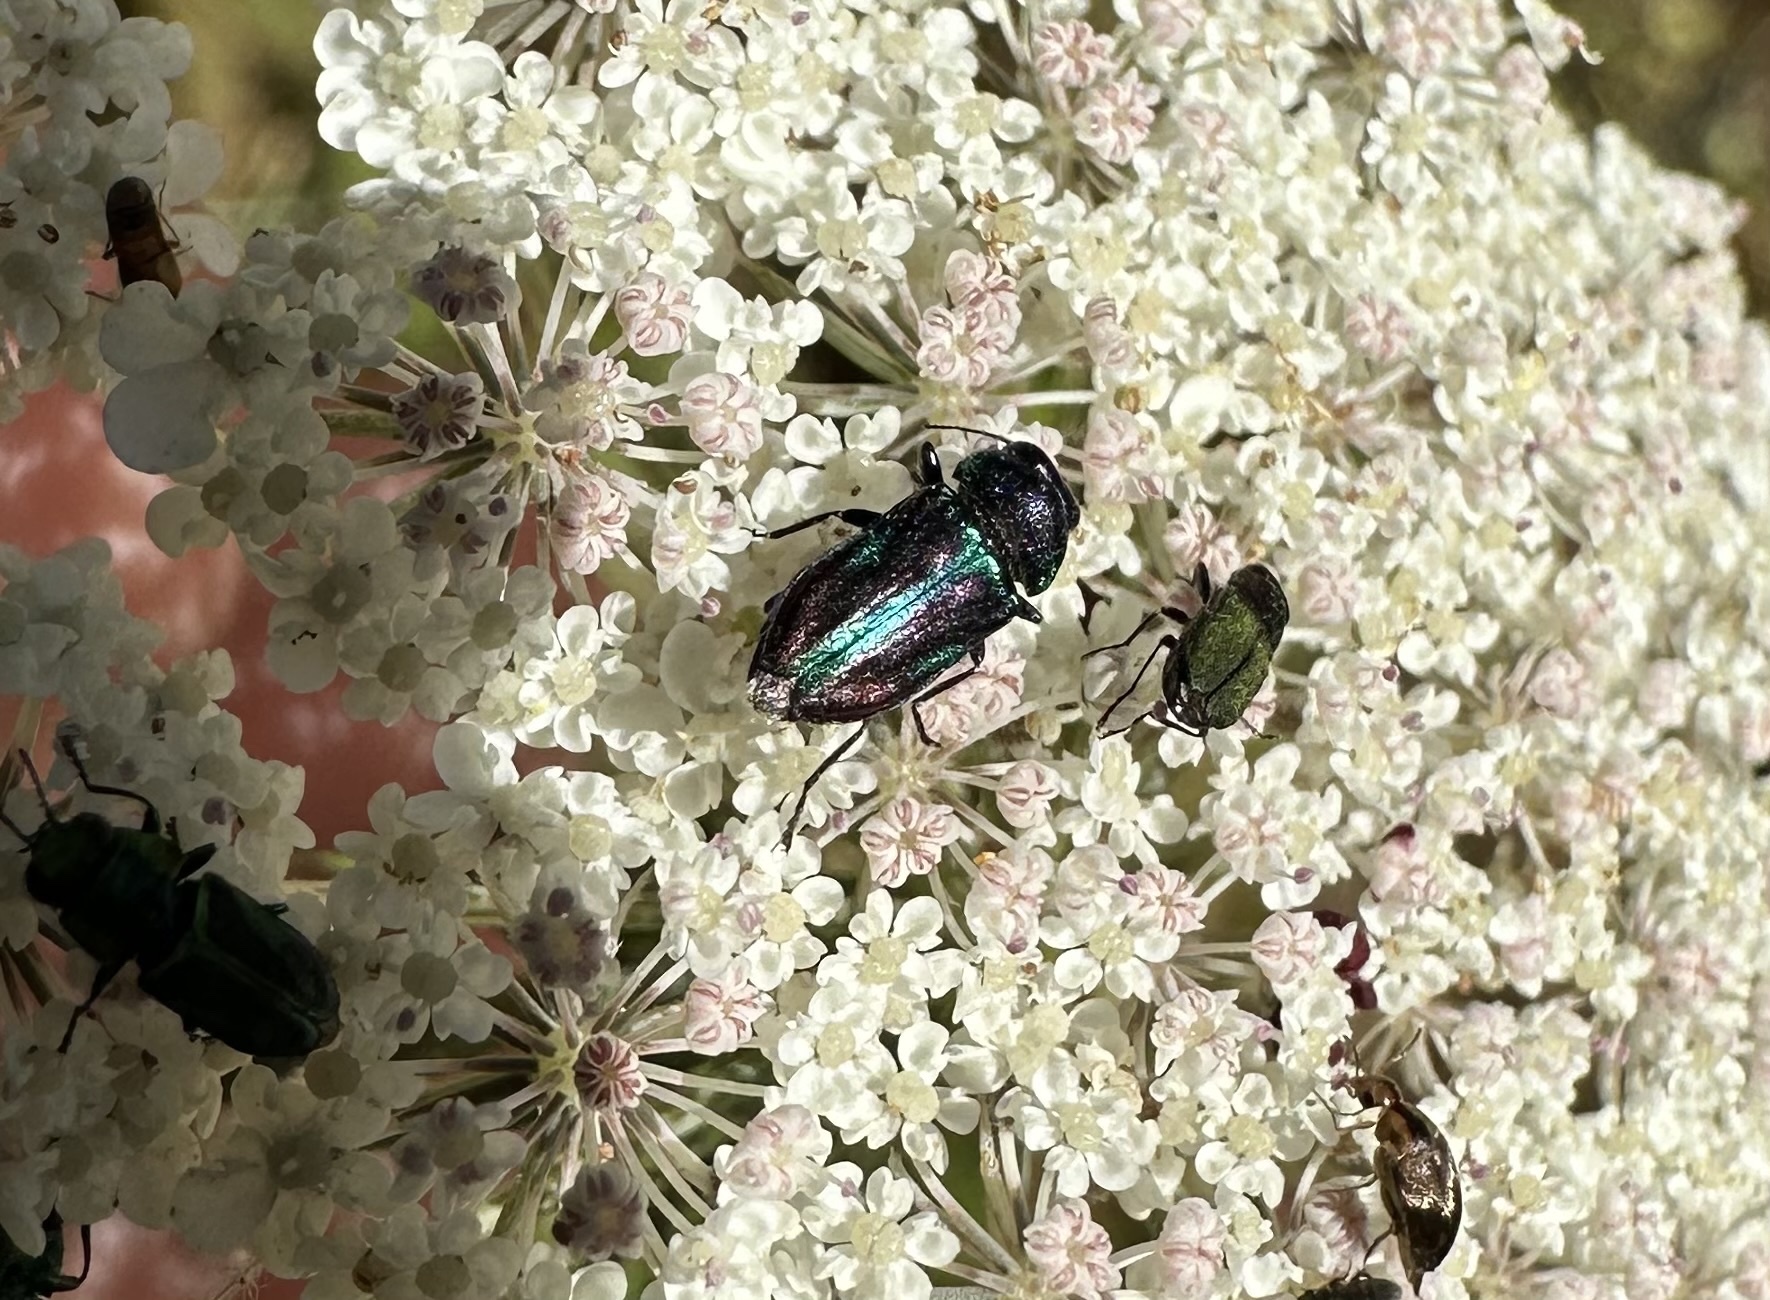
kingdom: Animalia
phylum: Arthropoda
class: Insecta
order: Coleoptera
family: Buprestidae
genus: Bilyaxia
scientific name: Bilyaxia concinna
